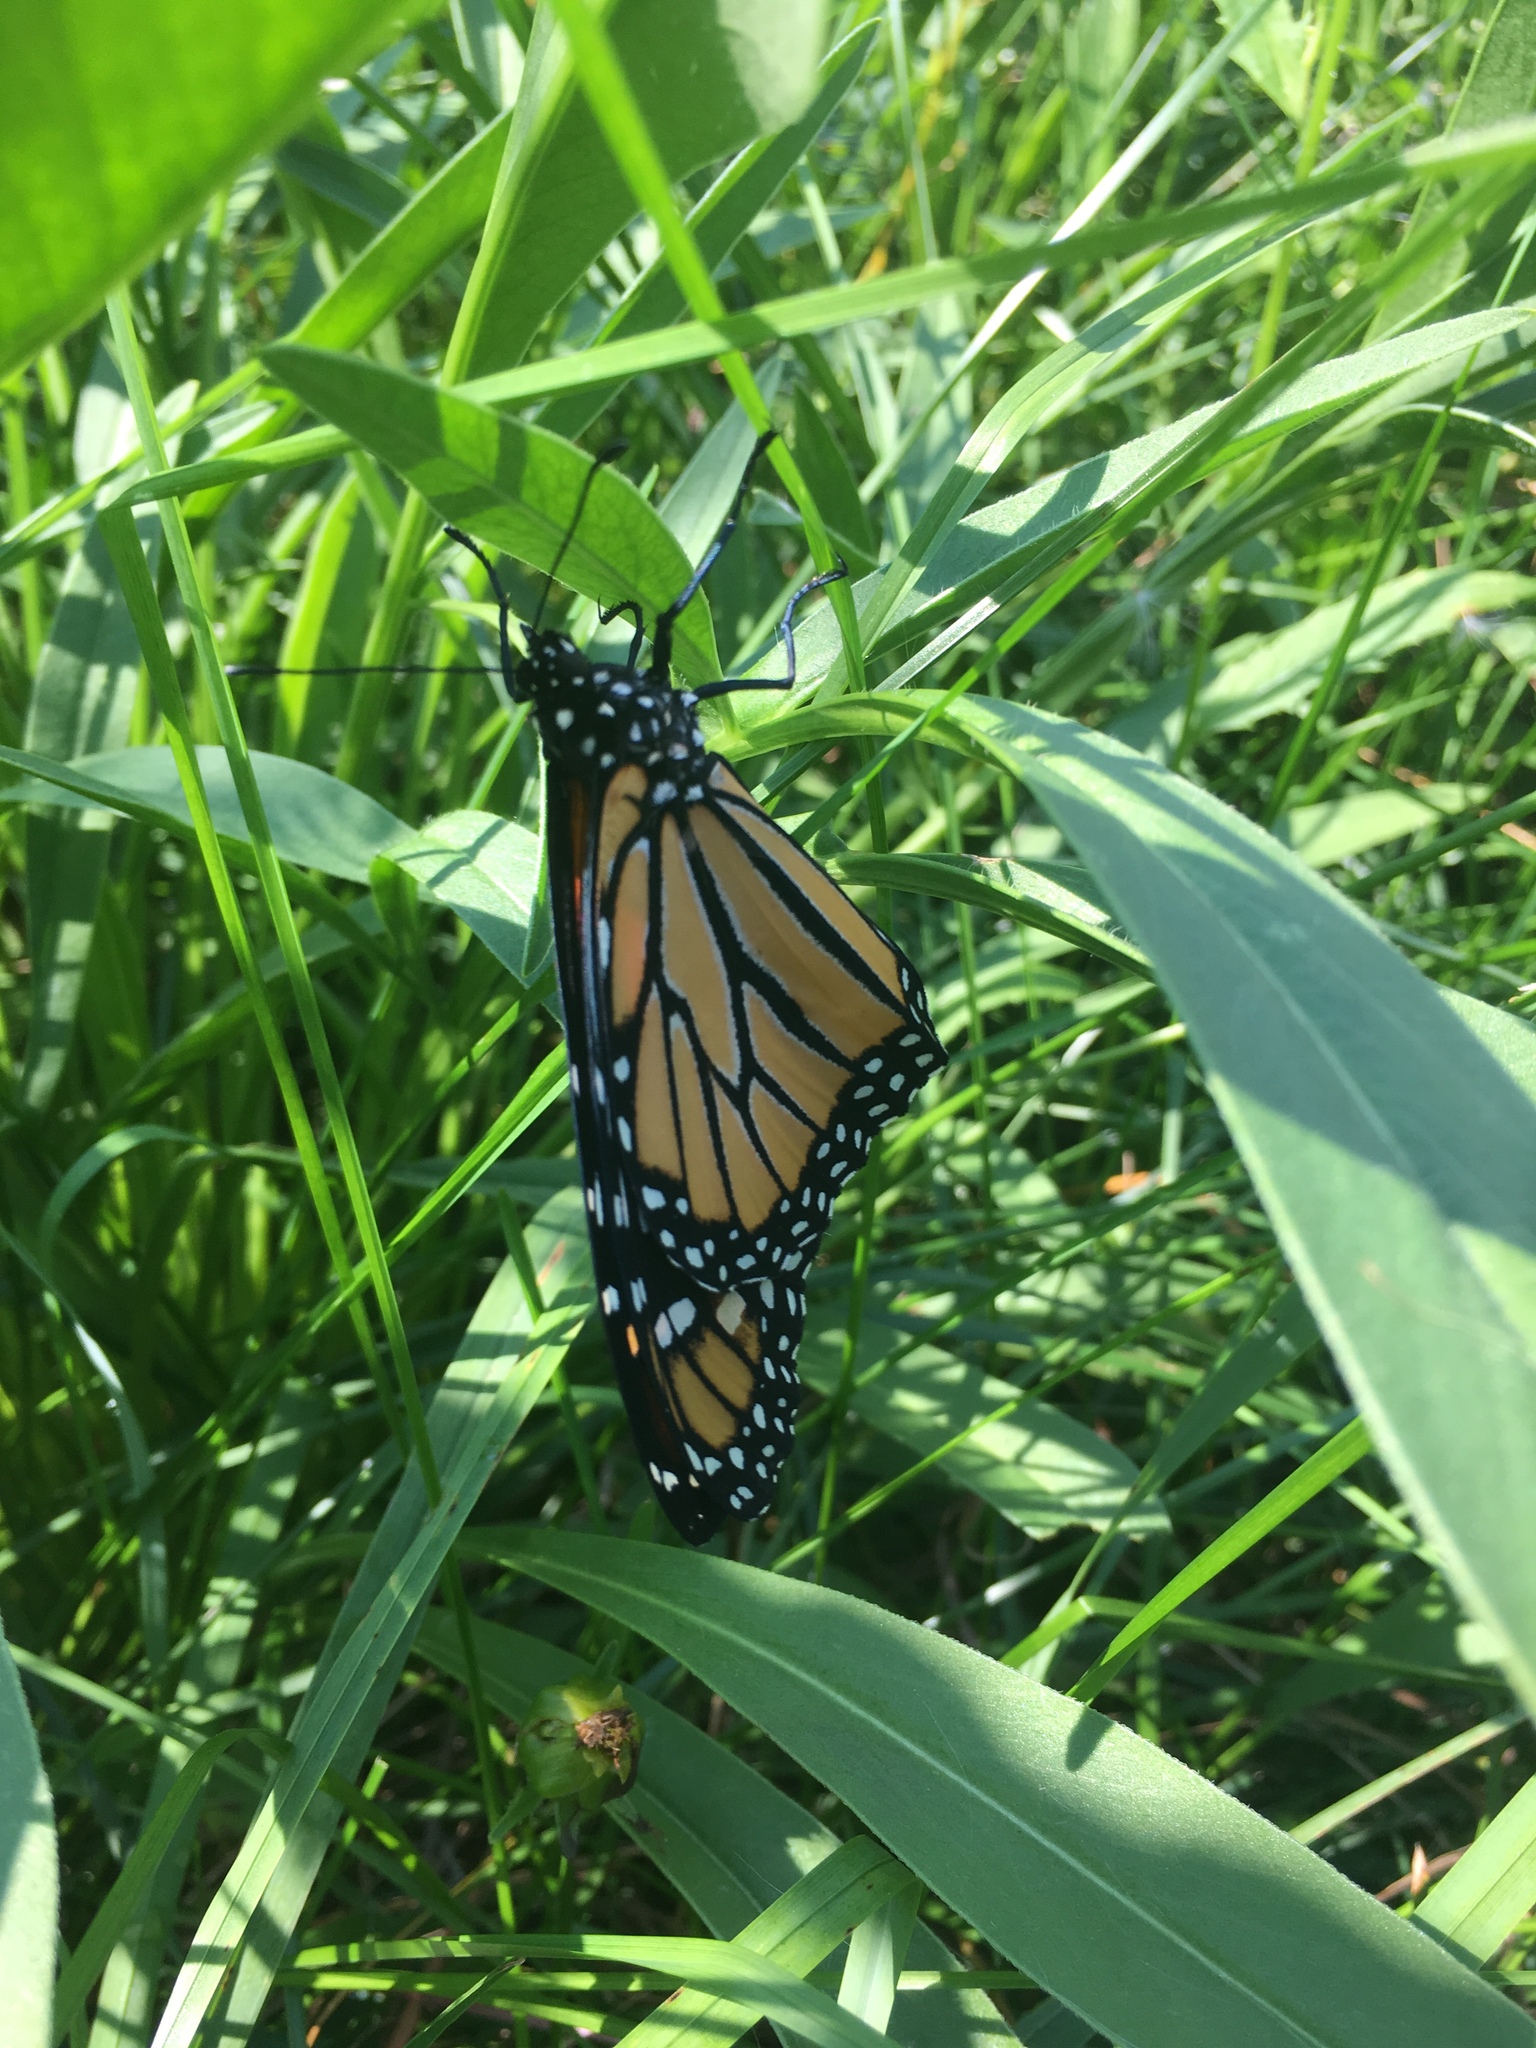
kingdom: Animalia
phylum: Arthropoda
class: Insecta
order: Lepidoptera
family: Nymphalidae
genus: Danaus
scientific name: Danaus plexippus
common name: Monarch
